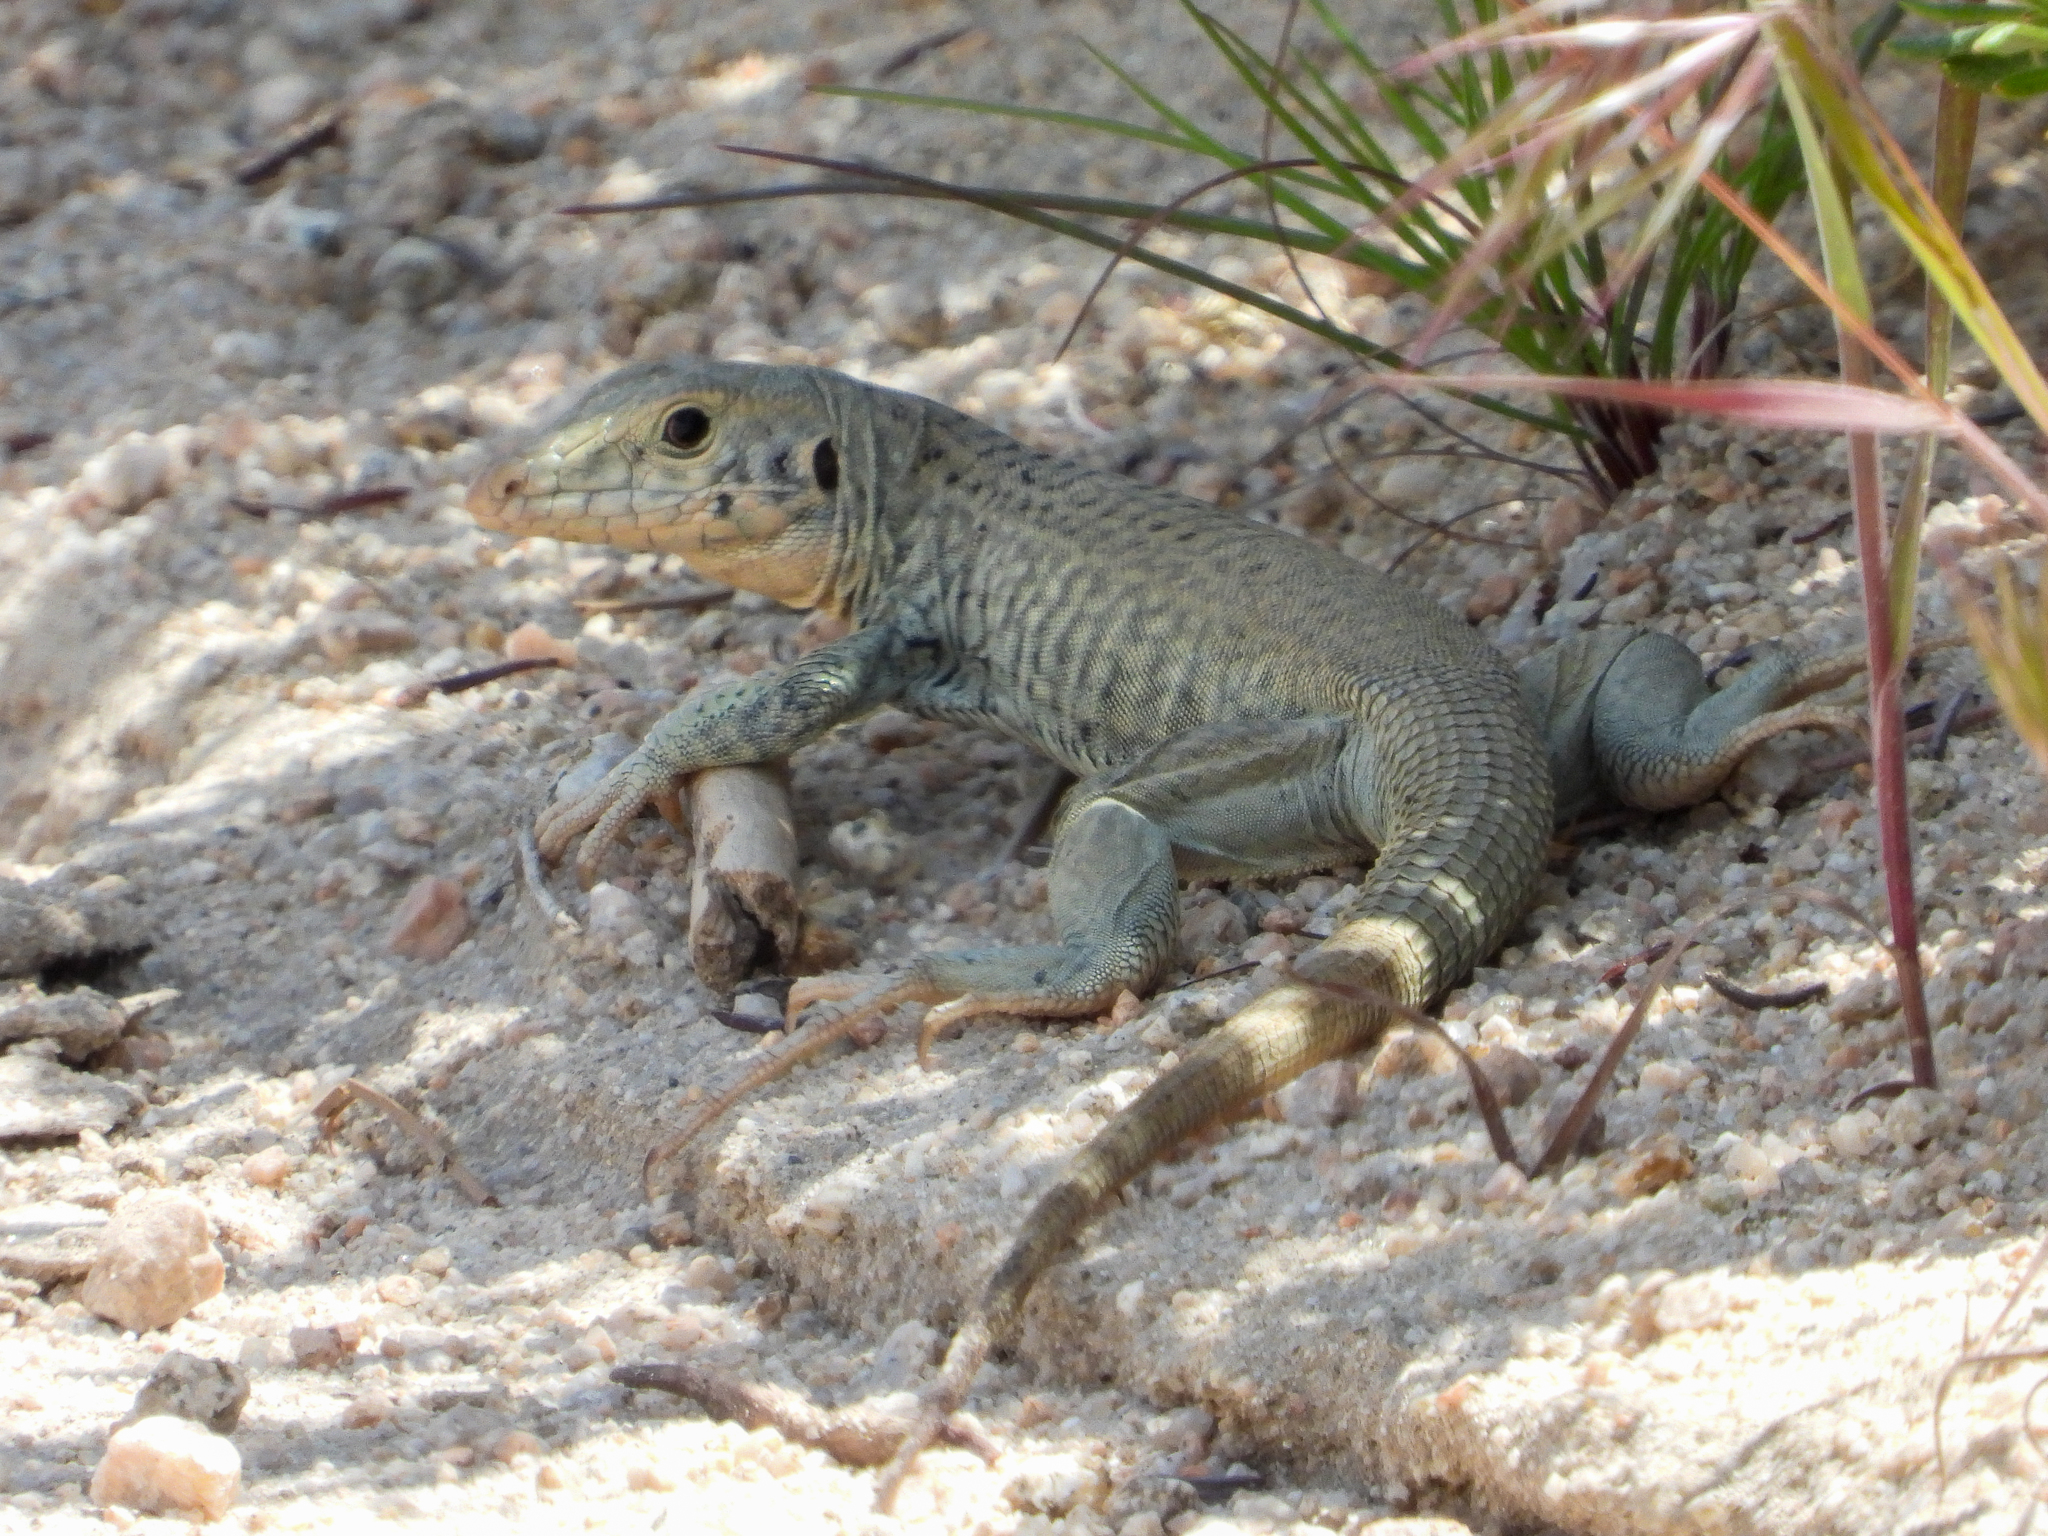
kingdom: Animalia
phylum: Chordata
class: Squamata
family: Teiidae
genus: Aspidoscelis
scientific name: Aspidoscelis tigris
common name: Tiger whiptail
